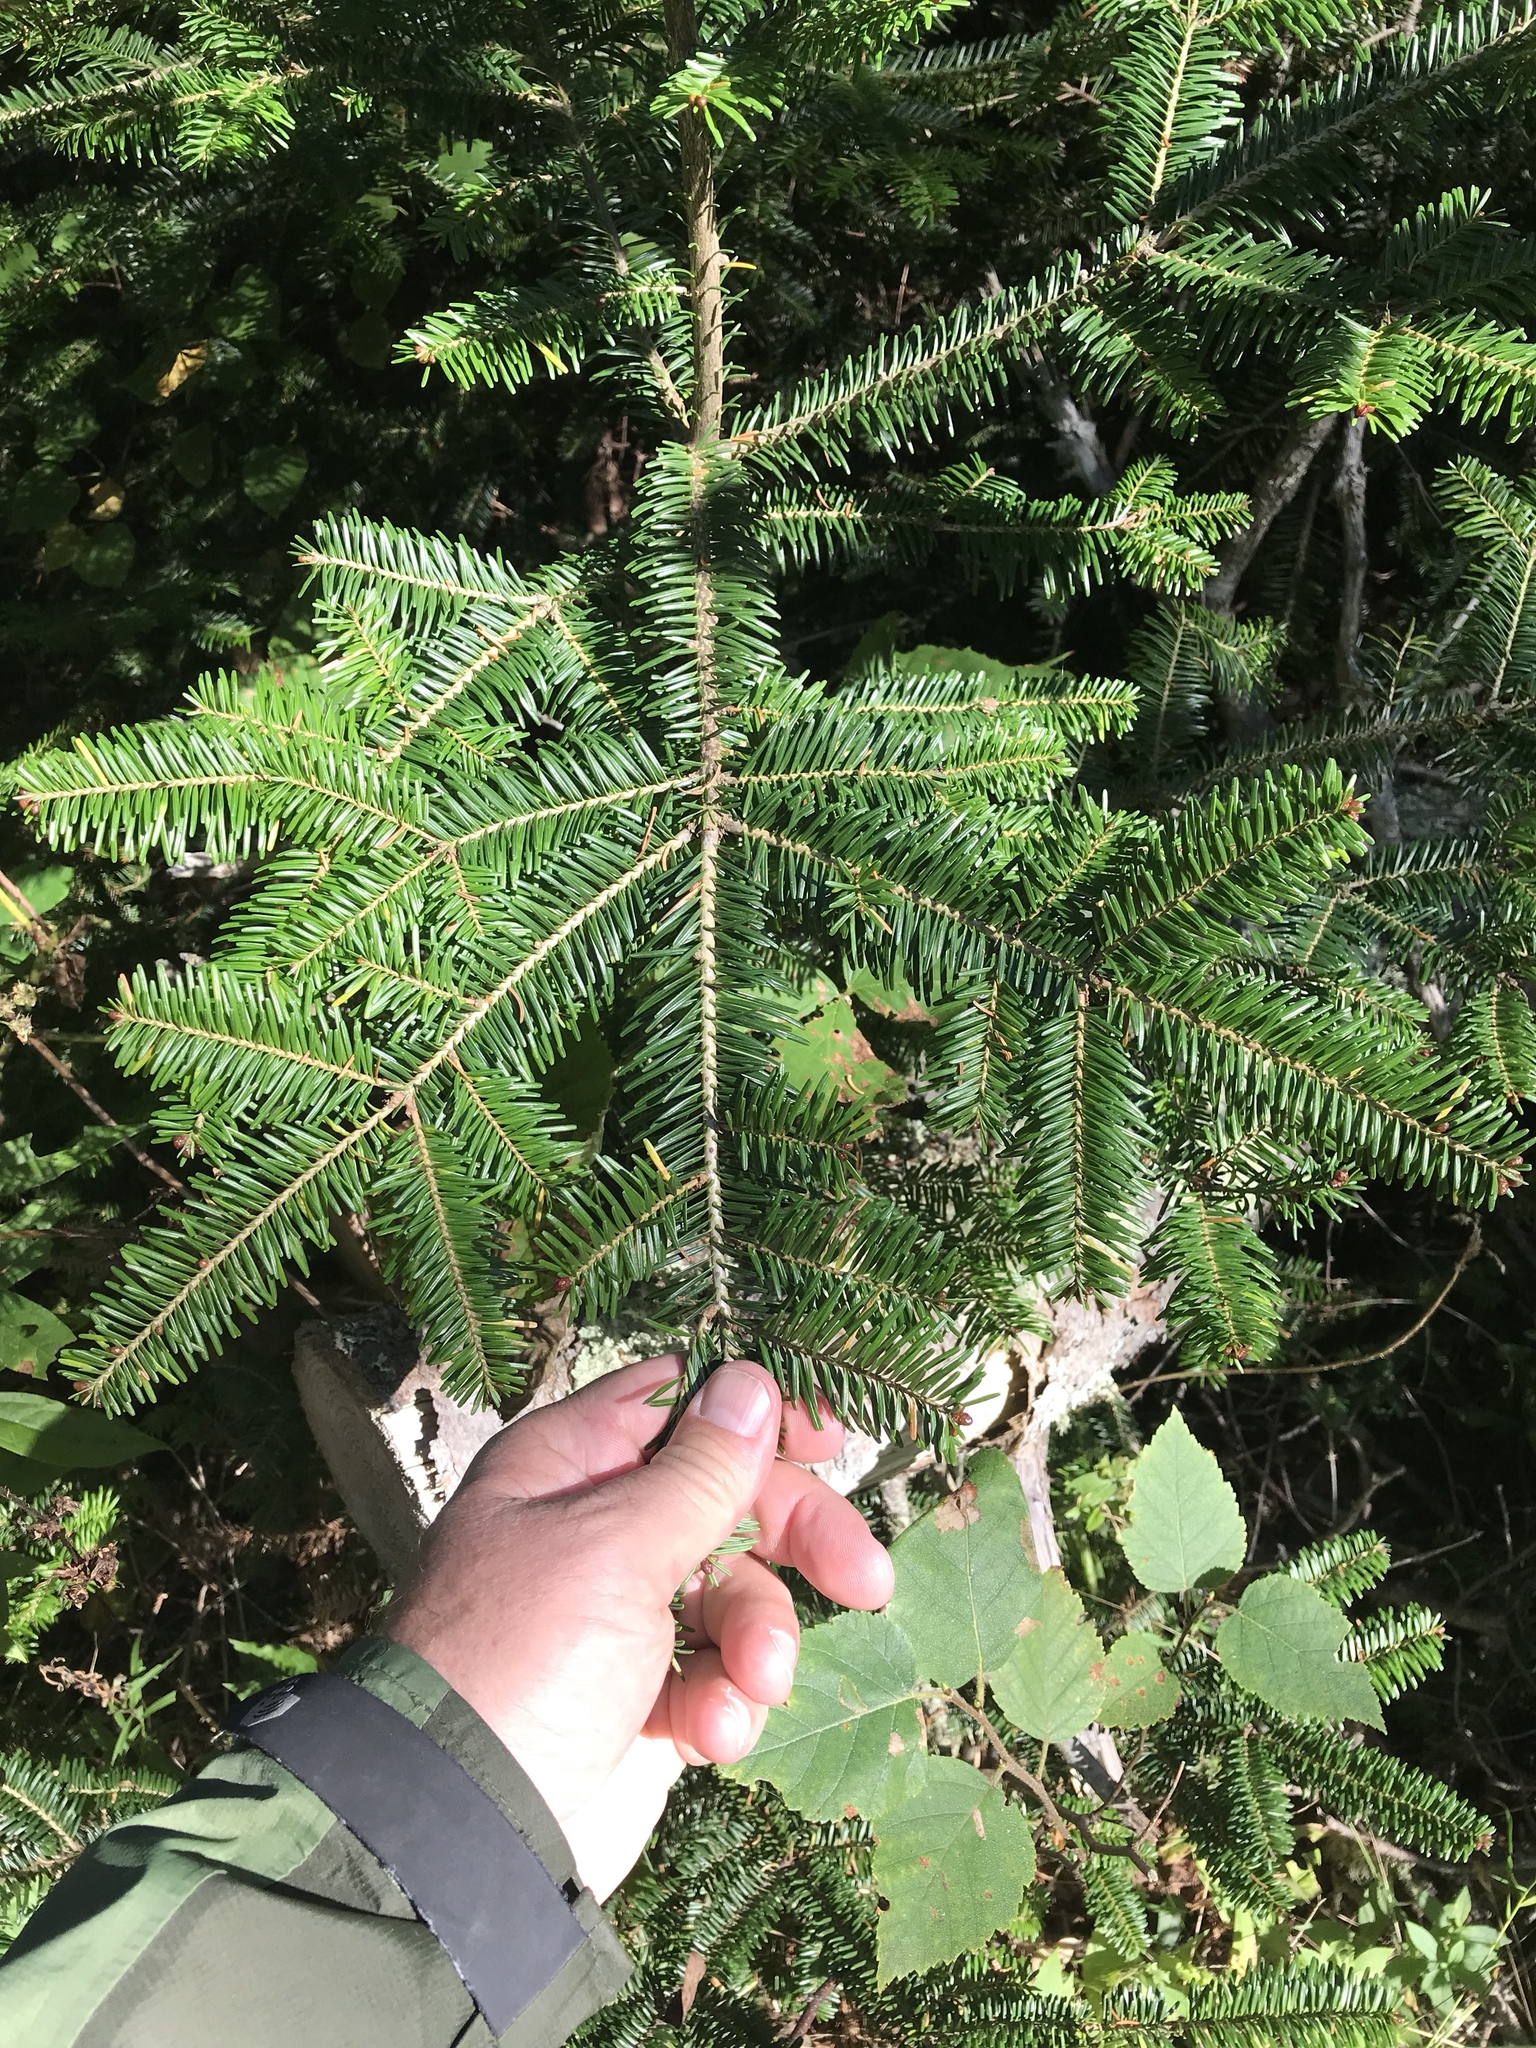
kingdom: Plantae
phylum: Tracheophyta
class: Pinopsida
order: Pinales
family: Pinaceae
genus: Abies
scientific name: Abies balsamea
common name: Balsam fir
